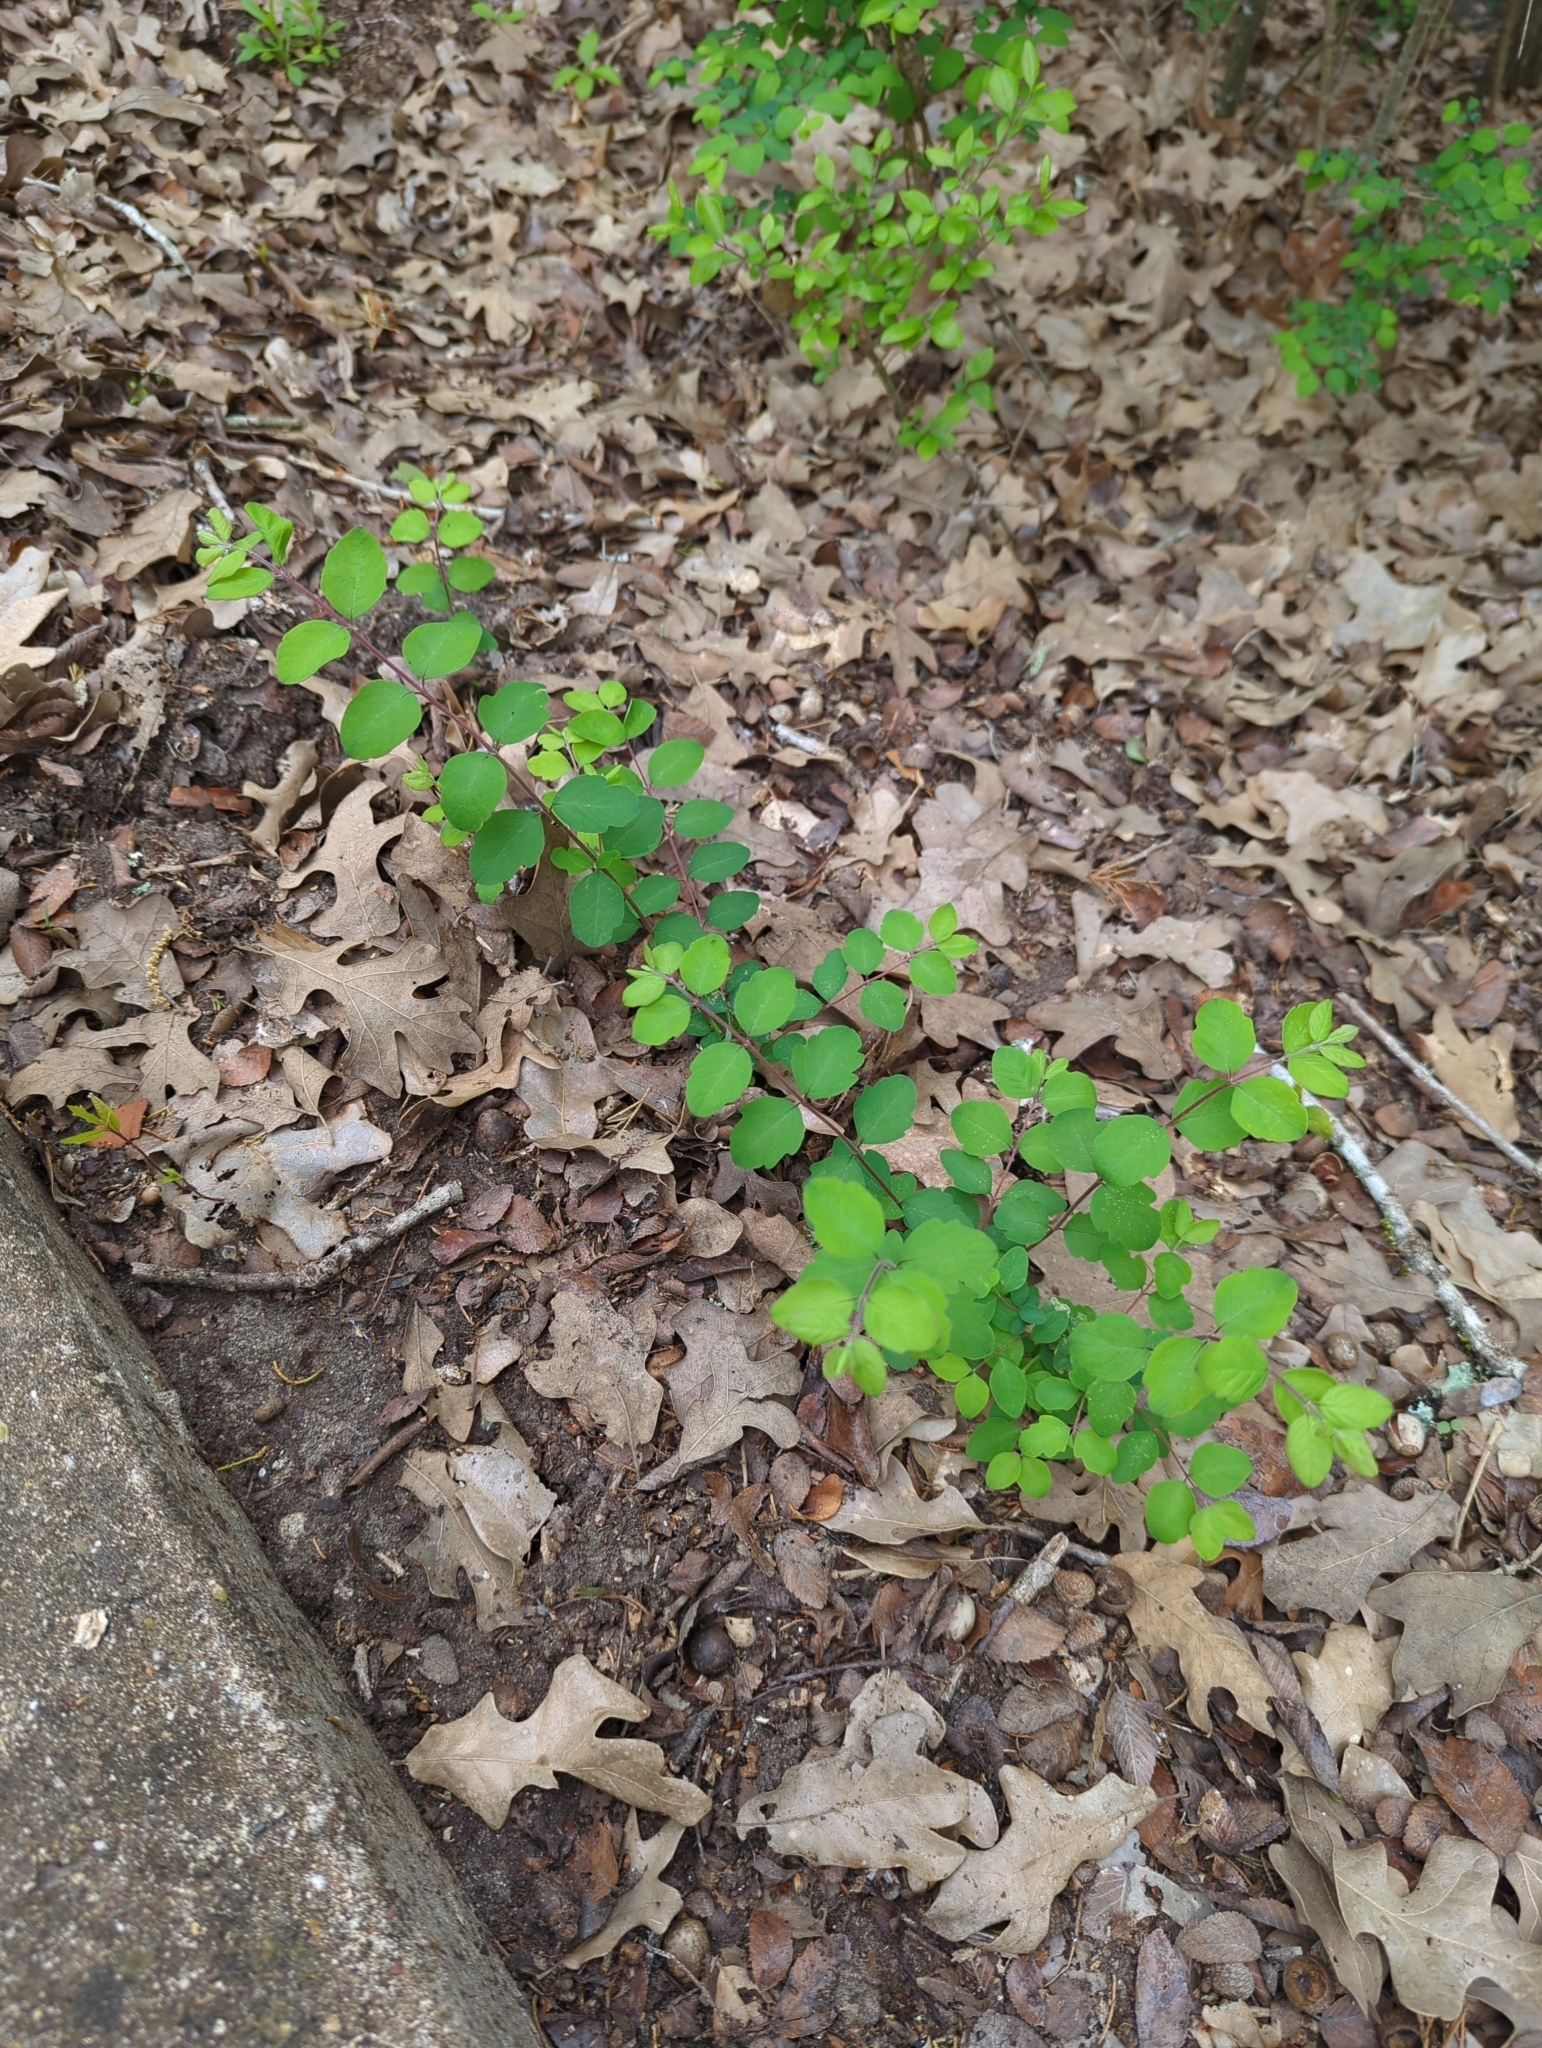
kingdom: Plantae
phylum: Tracheophyta
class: Magnoliopsida
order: Dipsacales
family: Caprifoliaceae
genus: Symphoricarpos
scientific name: Symphoricarpos orbiculatus
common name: Coralberry
